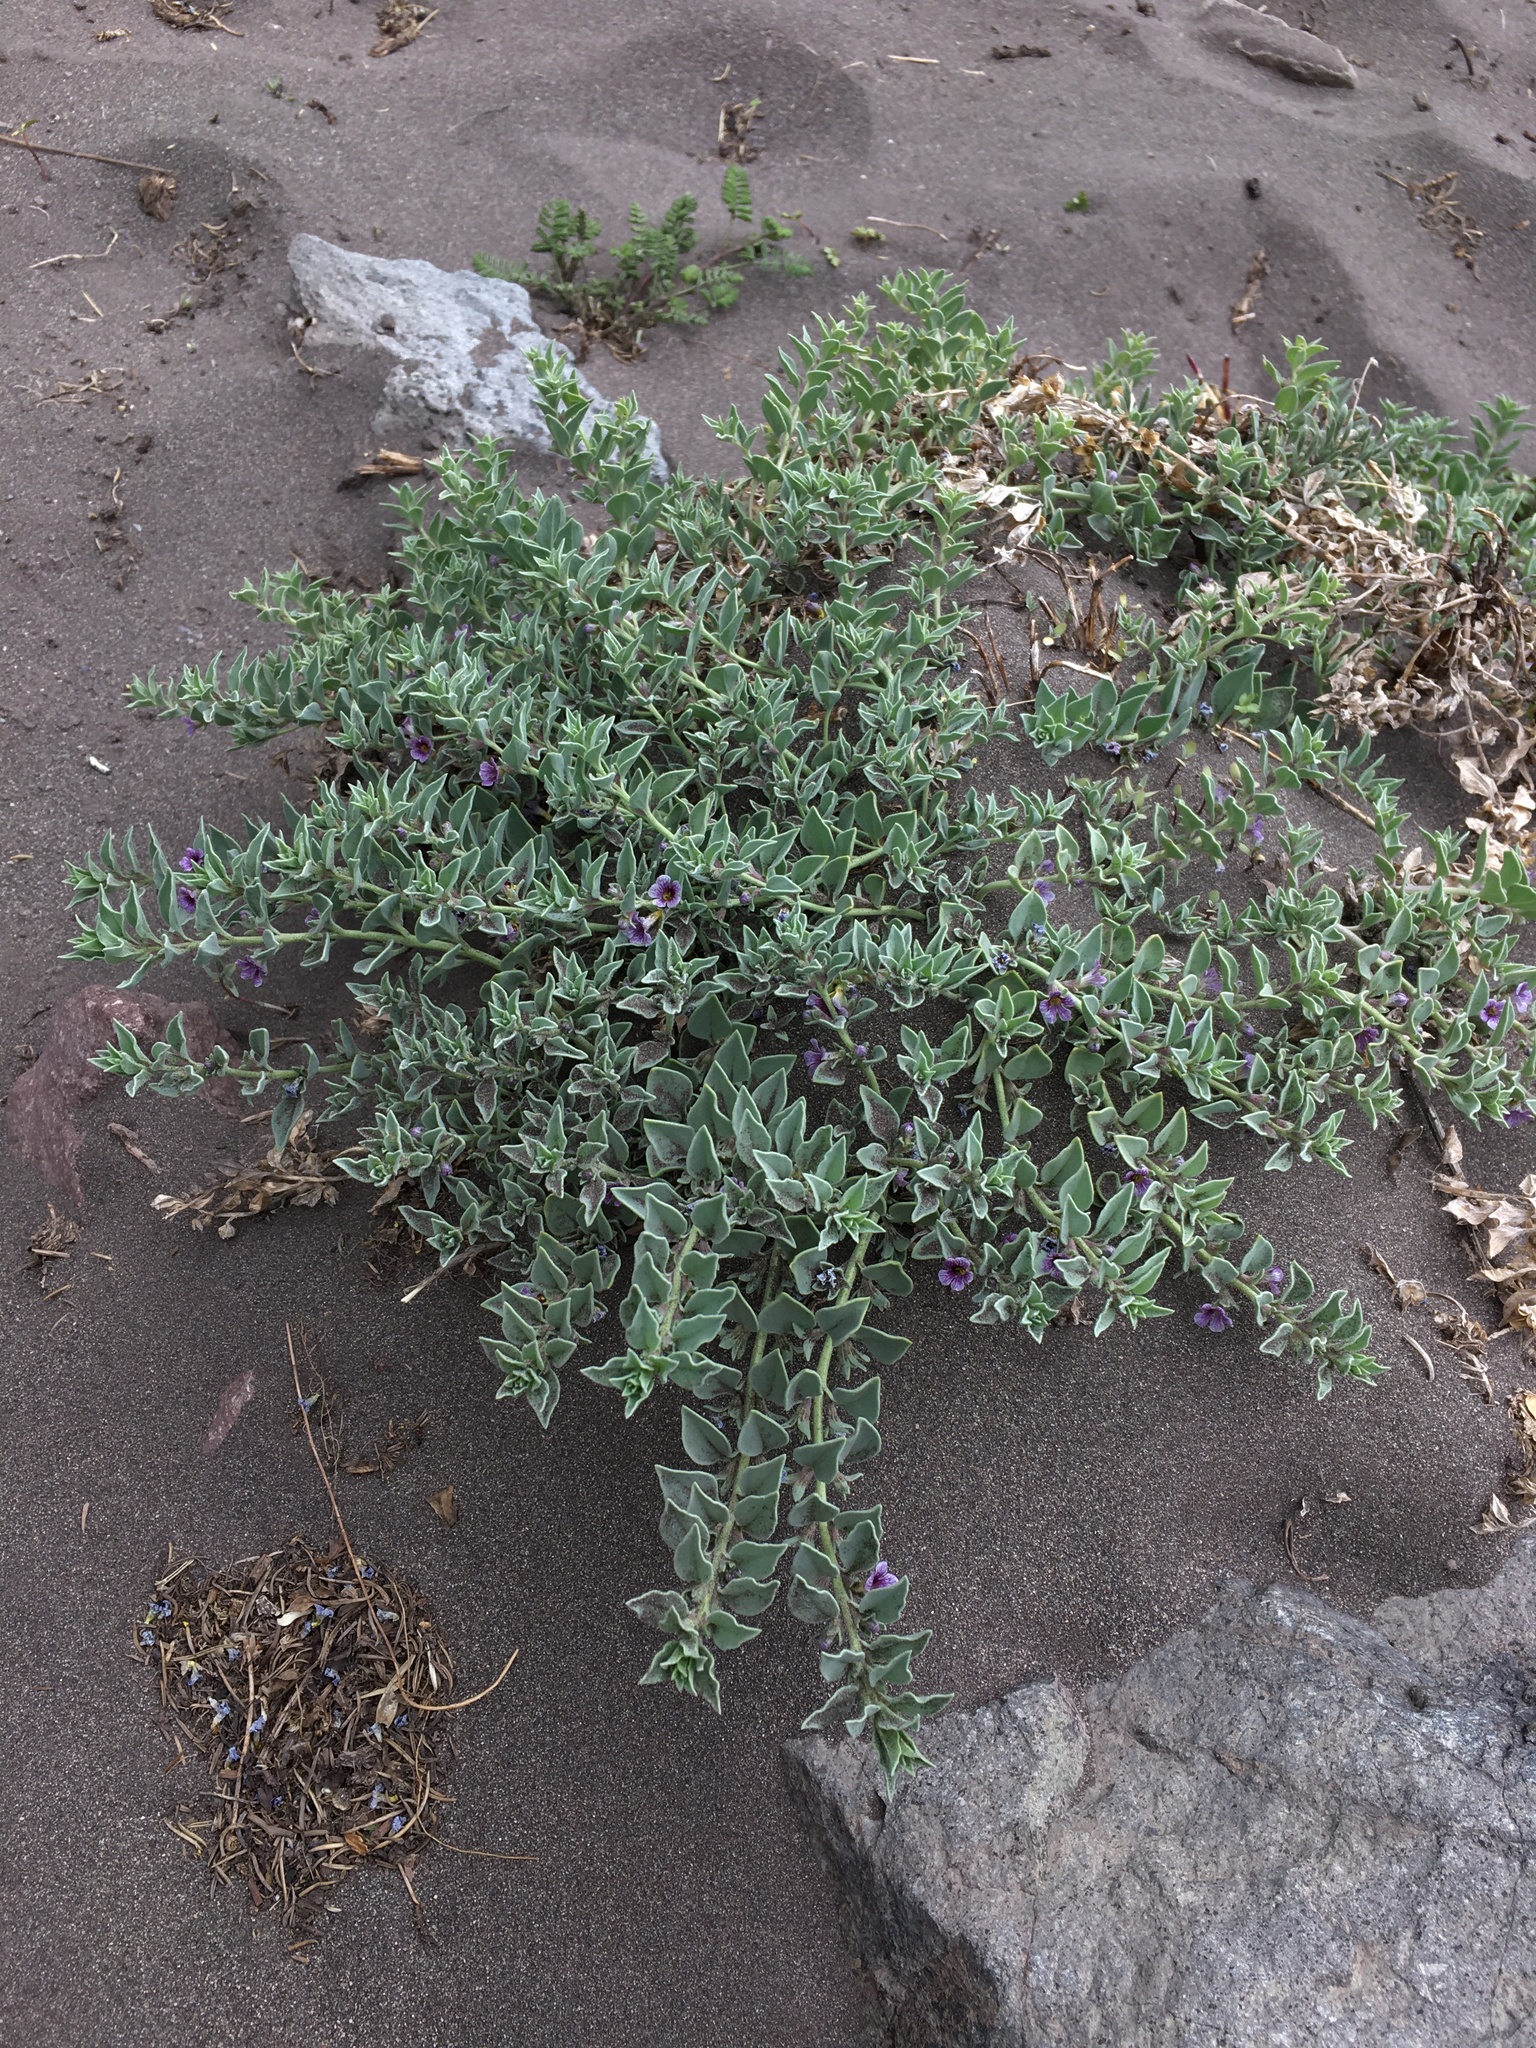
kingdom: Plantae
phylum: Tracheophyta
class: Magnoliopsida
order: Lamiales
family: Plantaginaceae
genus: Melosperma
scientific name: Melosperma andicola
